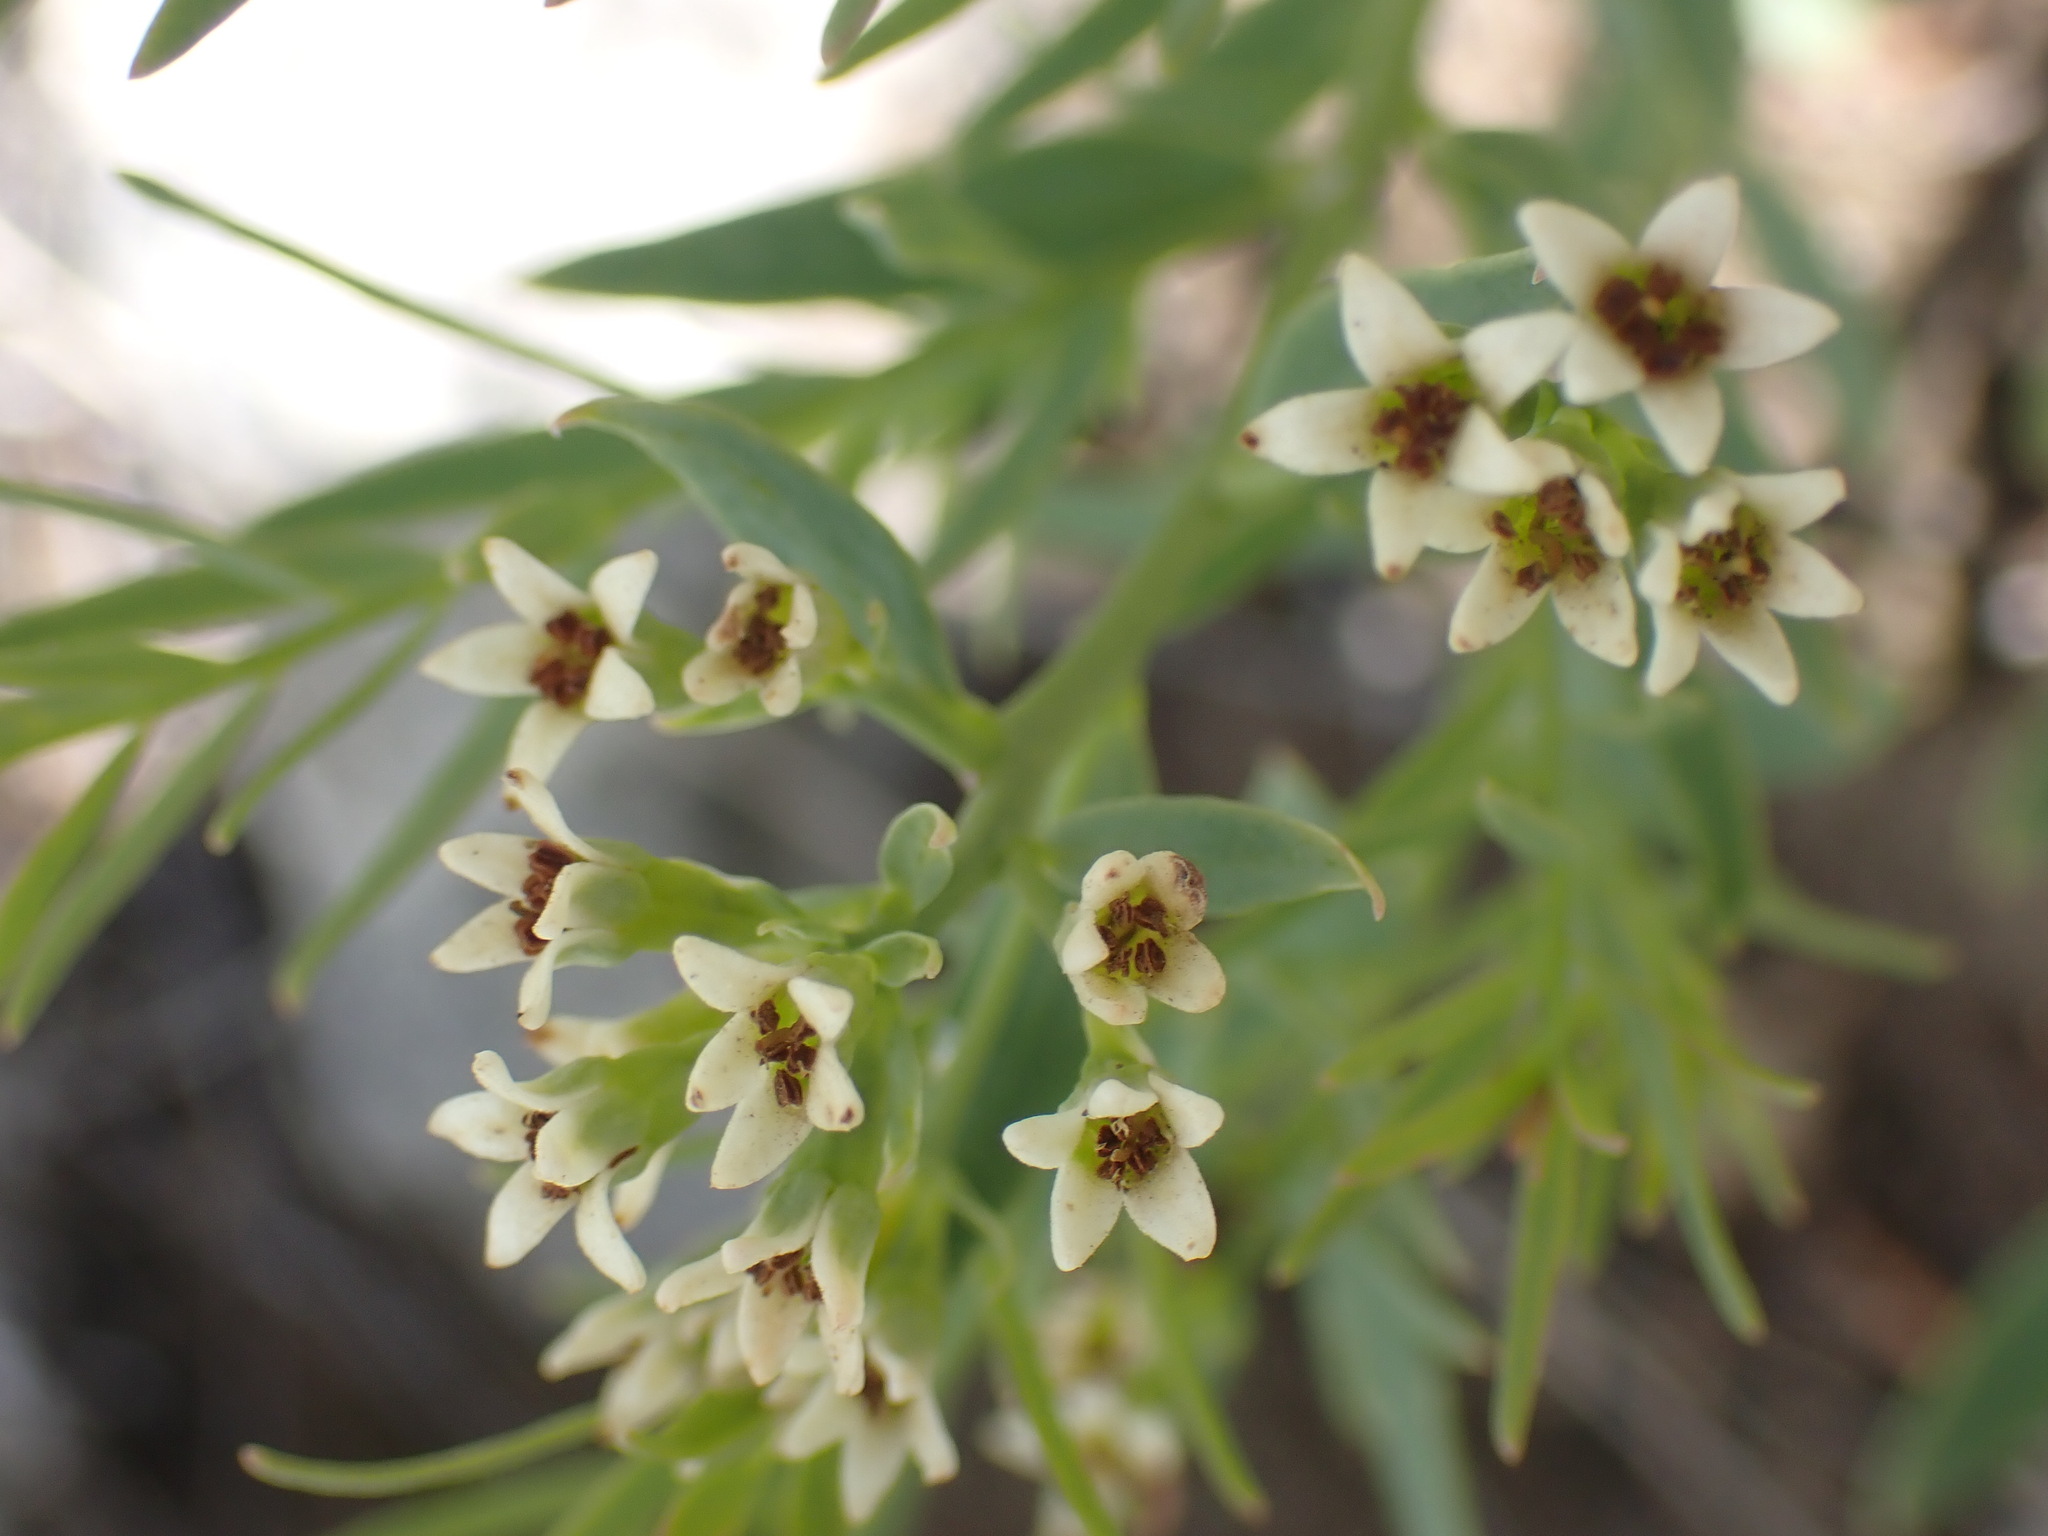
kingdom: Plantae
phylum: Tracheophyta
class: Magnoliopsida
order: Santalales
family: Comandraceae
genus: Comandra
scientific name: Comandra umbellata
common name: Bastard toadflax
